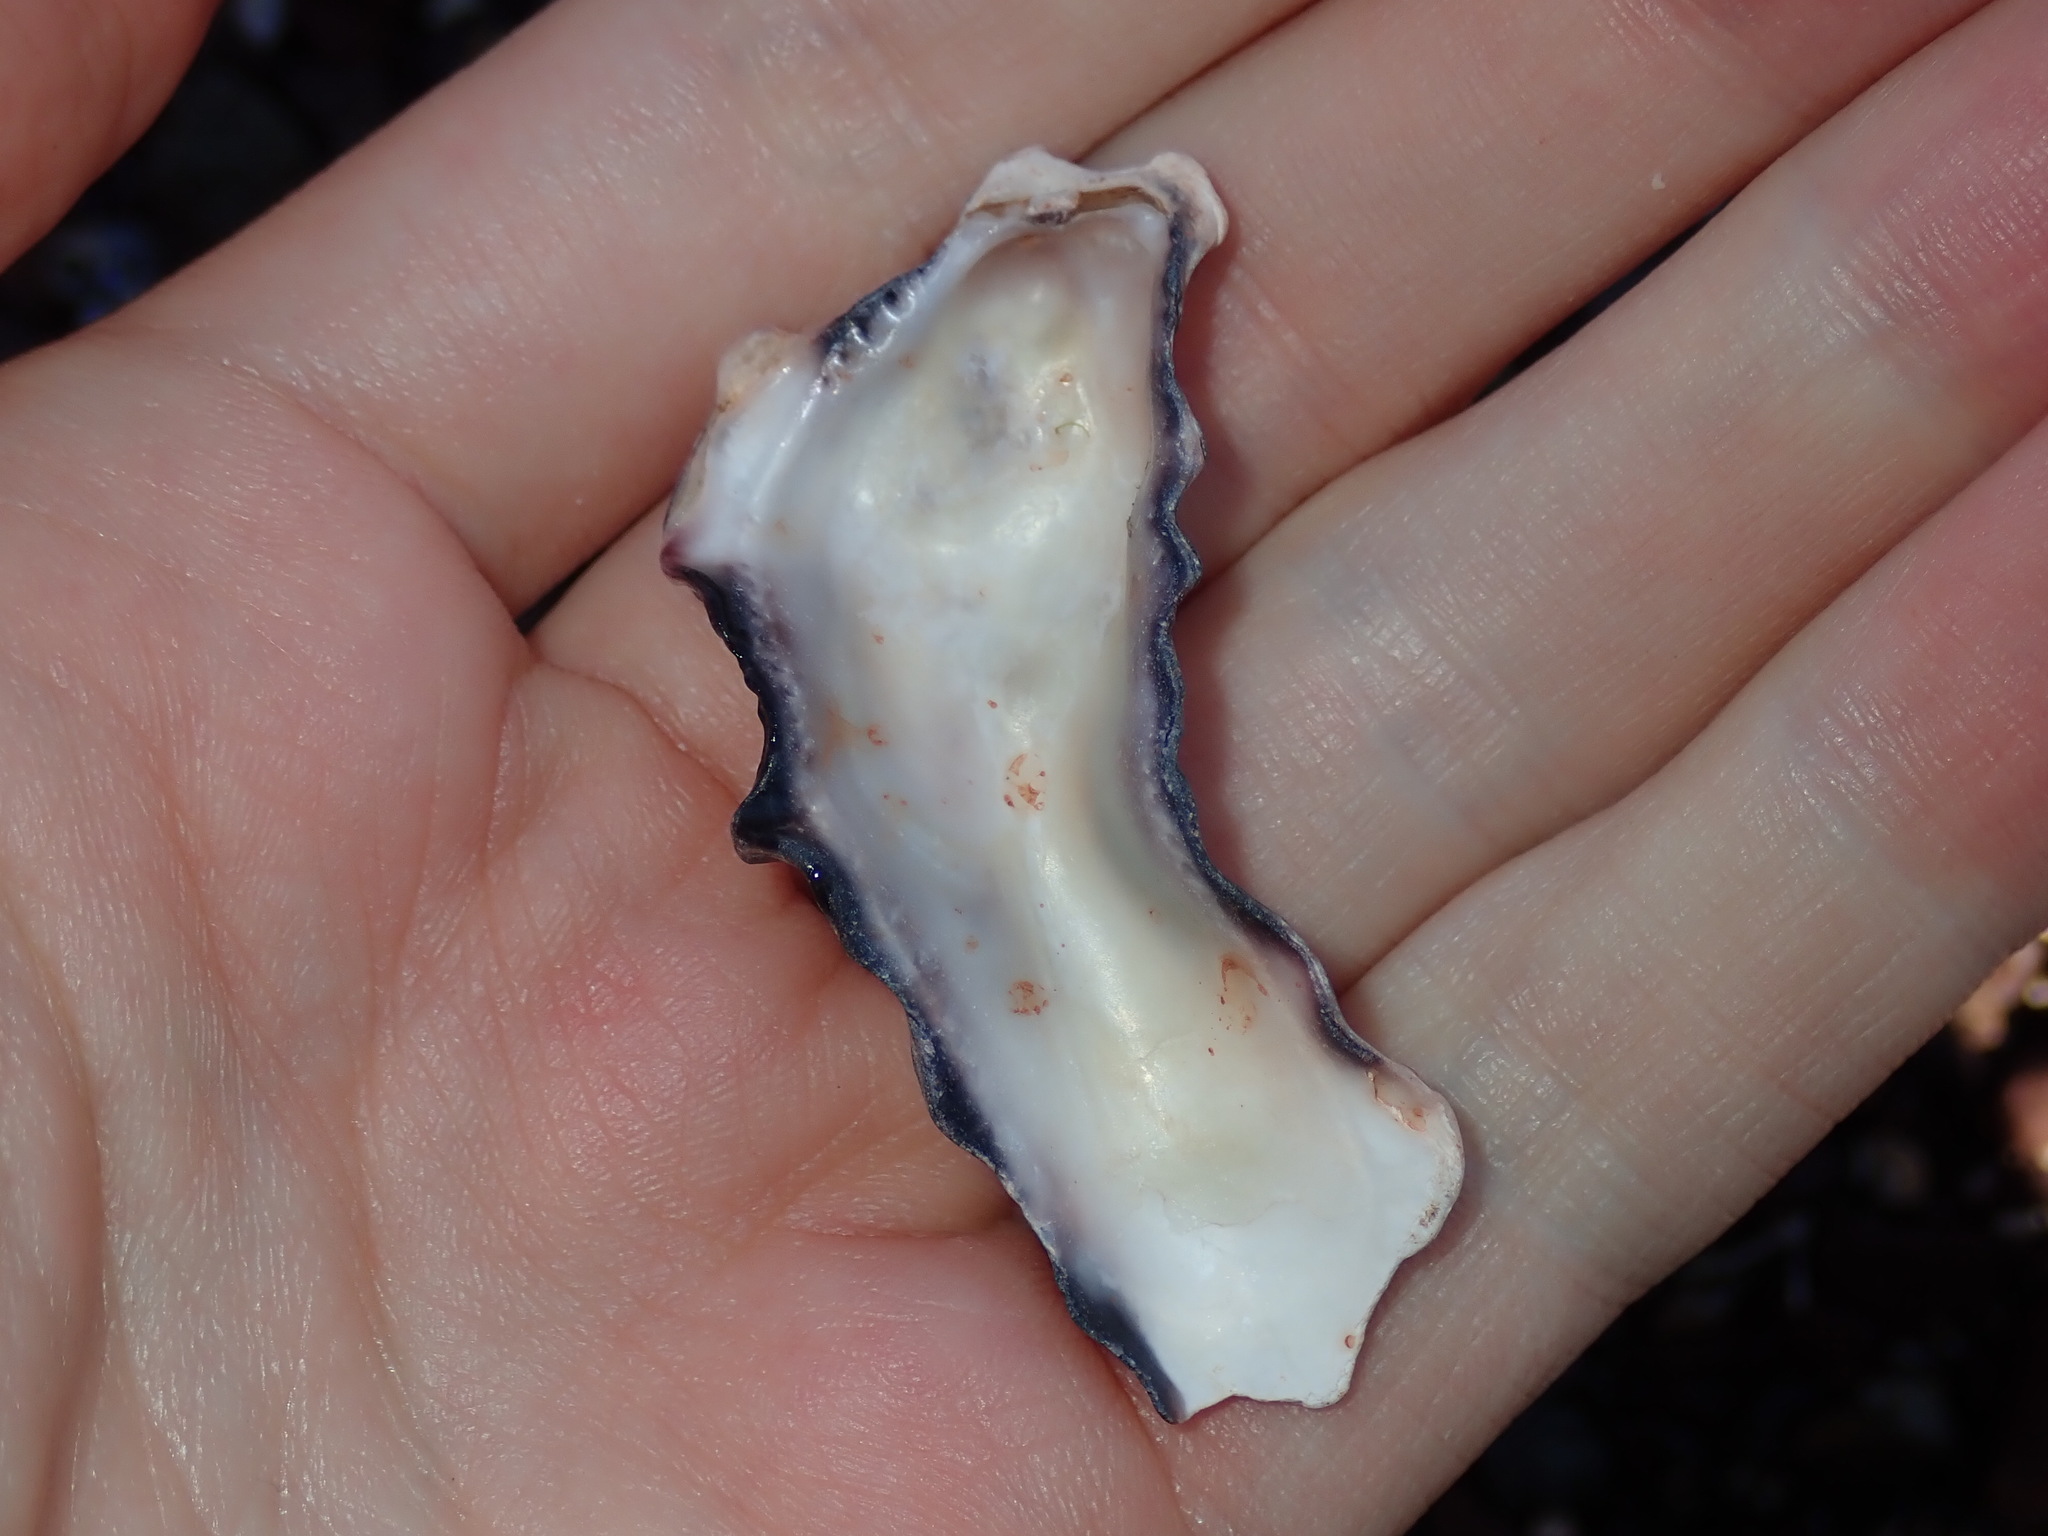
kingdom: Animalia
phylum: Mollusca
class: Bivalvia
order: Ostreida
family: Ostreidae
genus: Saccostrea
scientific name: Saccostrea glomerata
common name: Sydney cupped oyster
